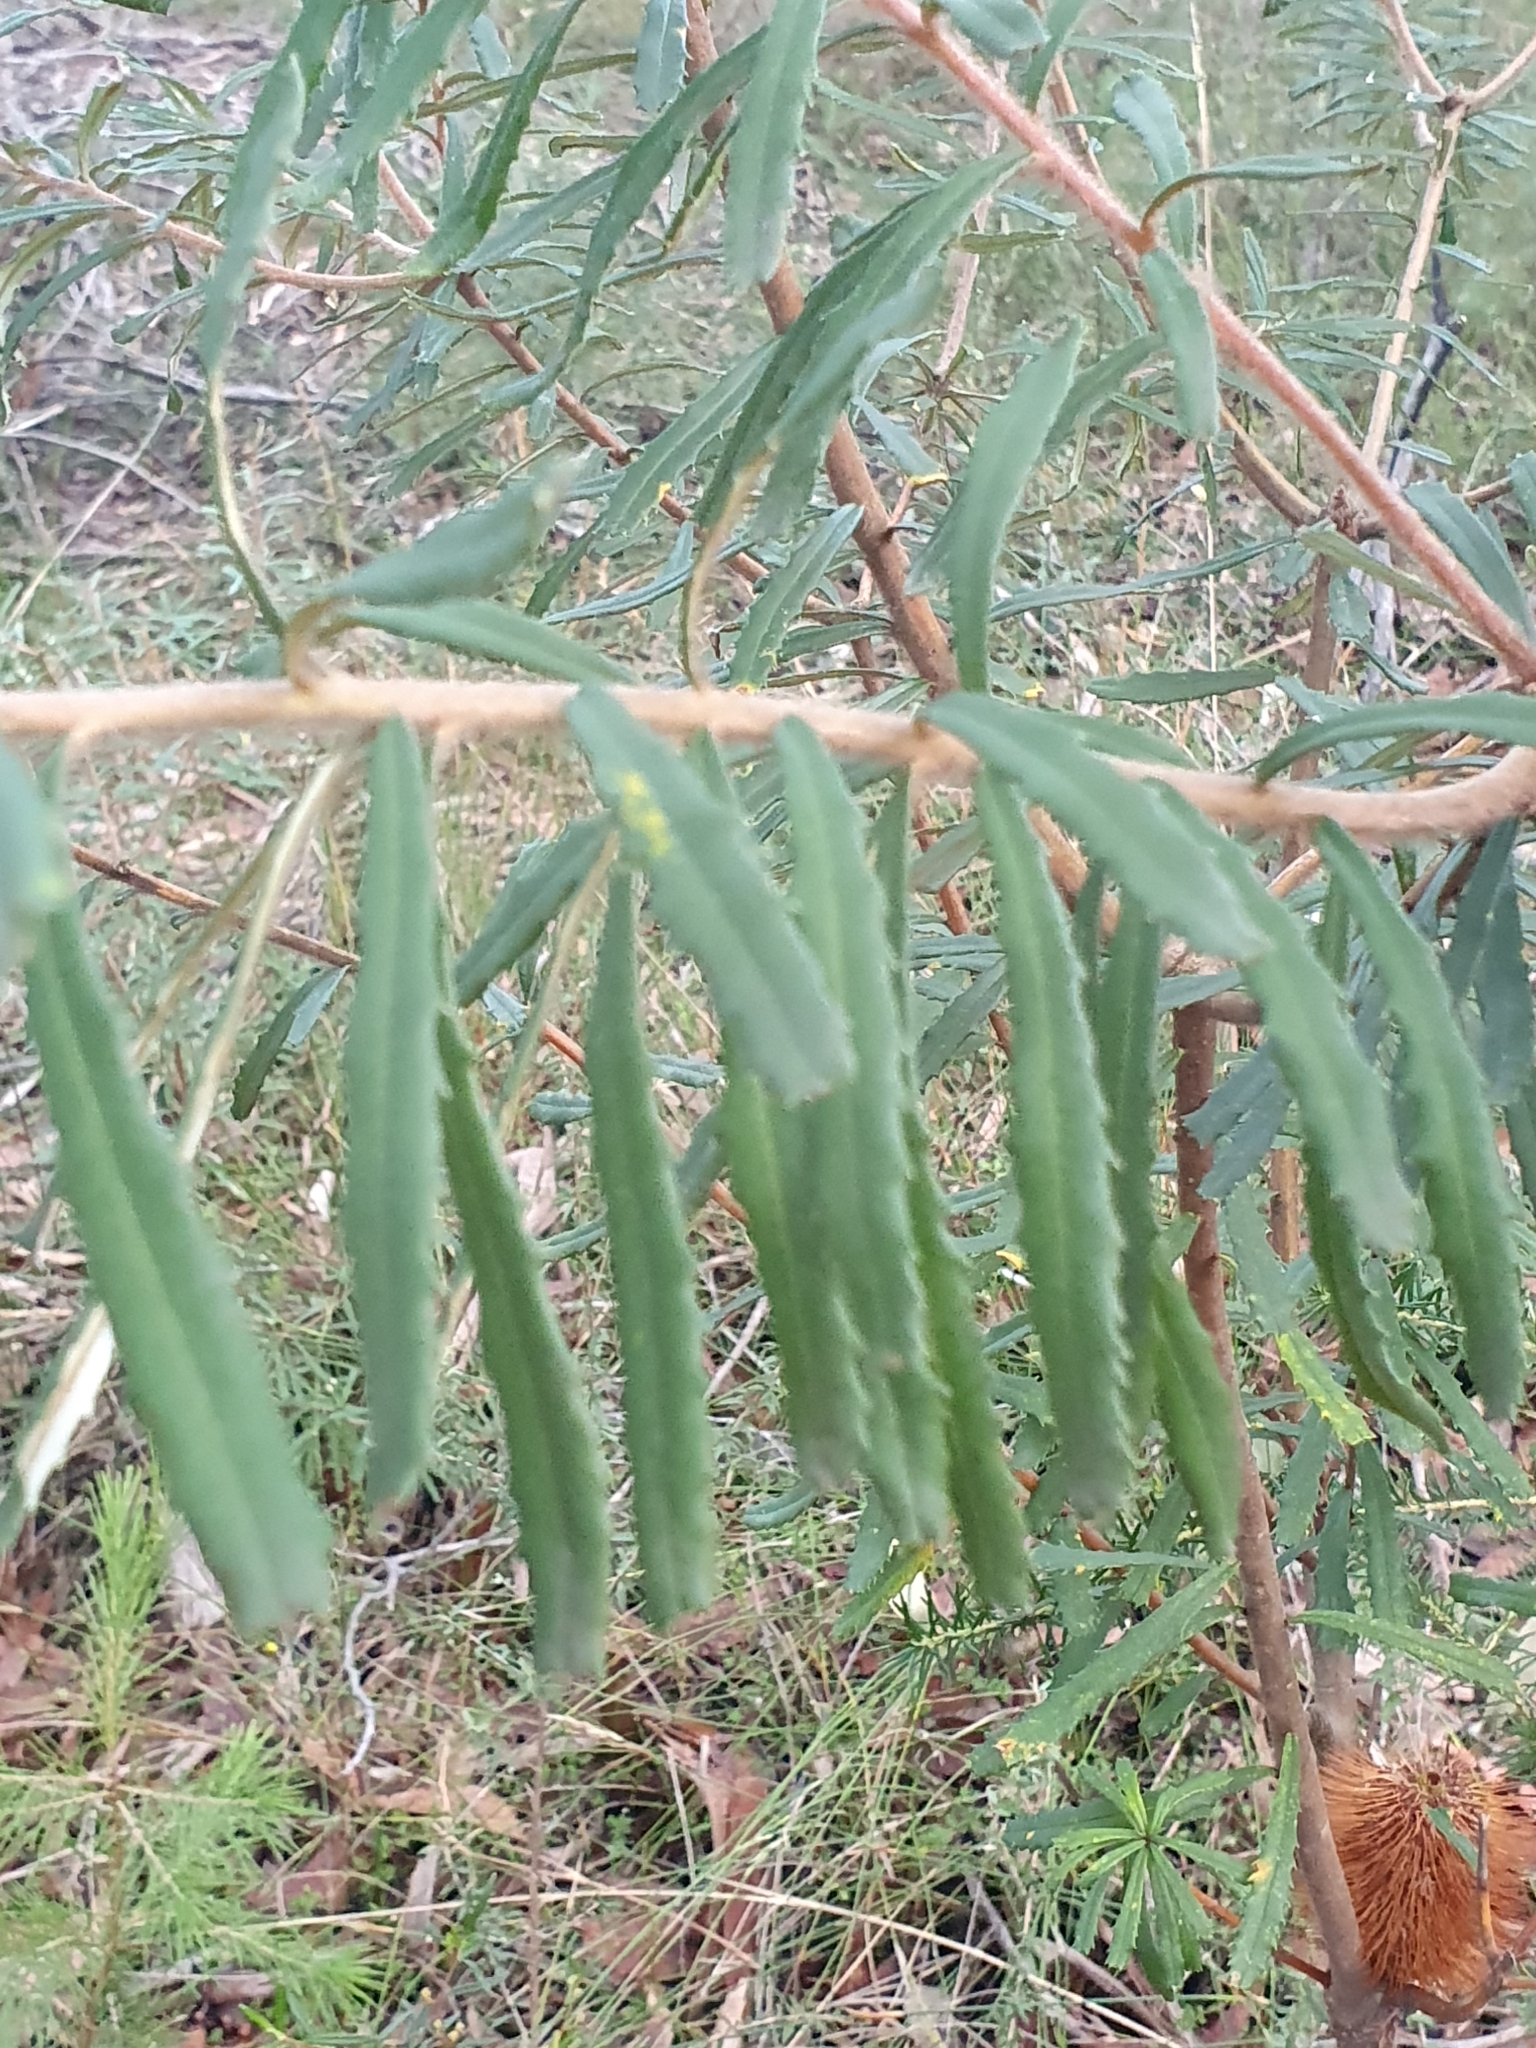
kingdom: Plantae
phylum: Tracheophyta
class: Magnoliopsida
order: Proteales
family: Proteaceae
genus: Banksia
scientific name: Banksia marginata
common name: Silver banksia
